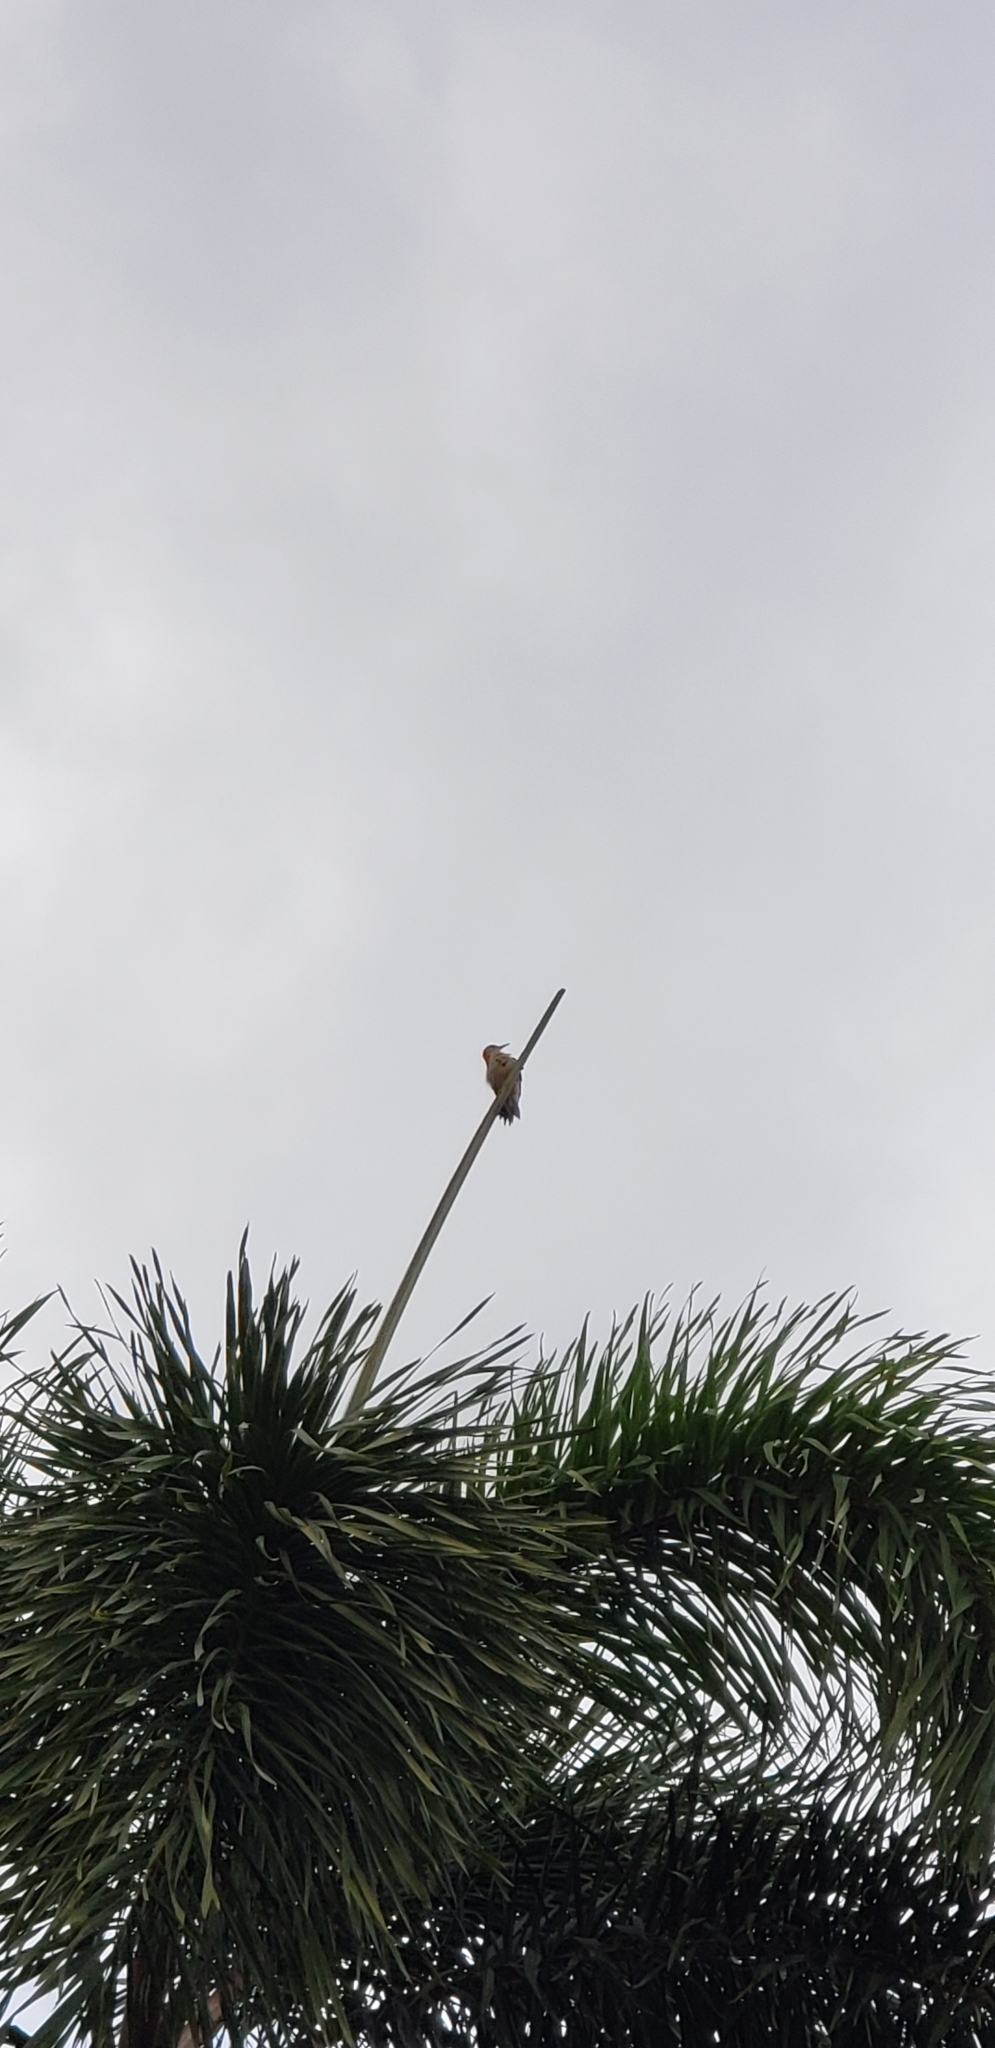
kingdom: Animalia
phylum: Chordata
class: Aves
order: Piciformes
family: Picidae
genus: Melanerpes
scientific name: Melanerpes carolinus
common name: Red-bellied woodpecker
